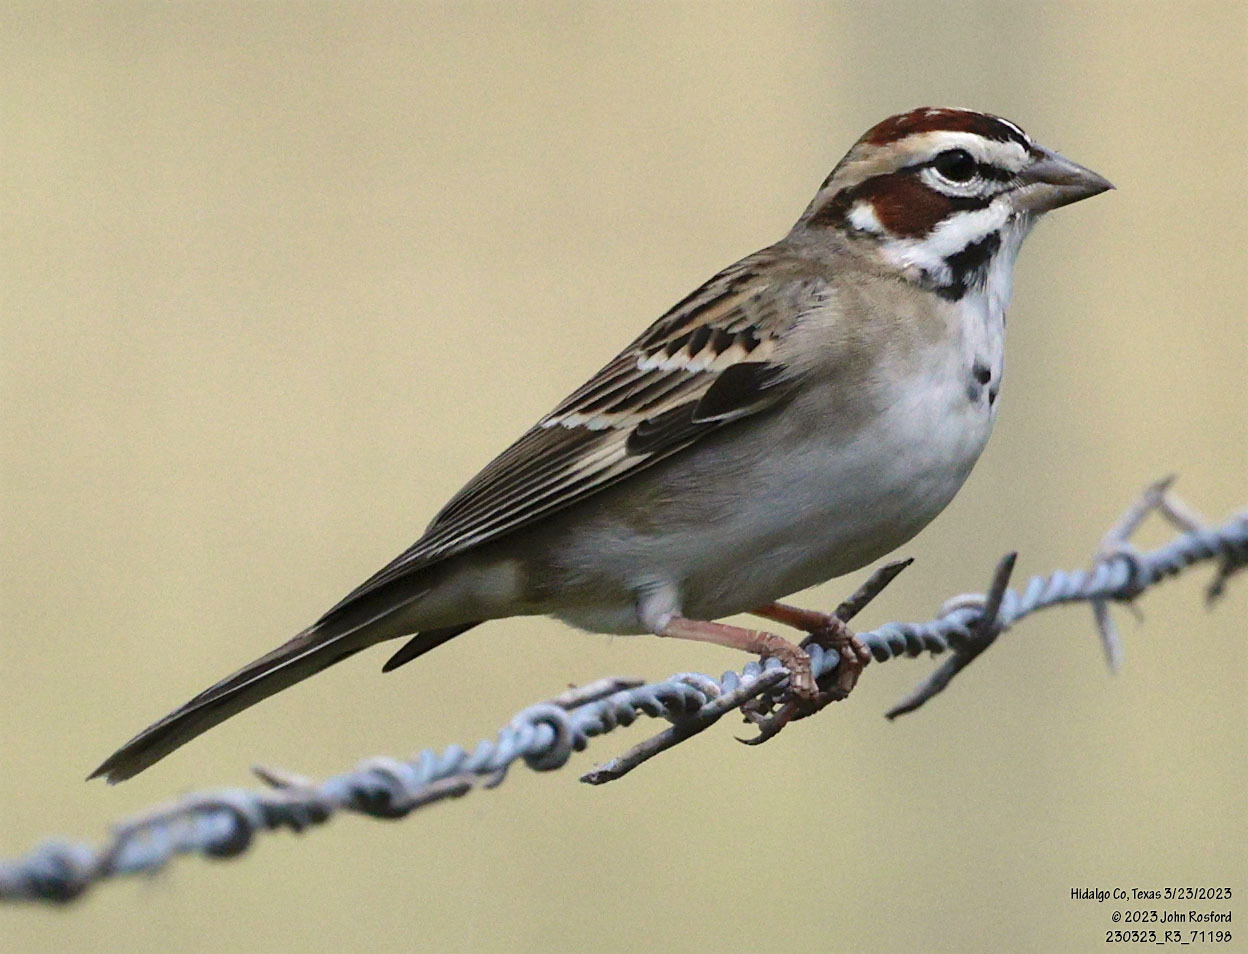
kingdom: Animalia
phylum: Chordata
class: Aves
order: Passeriformes
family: Passerellidae
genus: Chondestes
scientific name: Chondestes grammacus
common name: Lark sparrow
